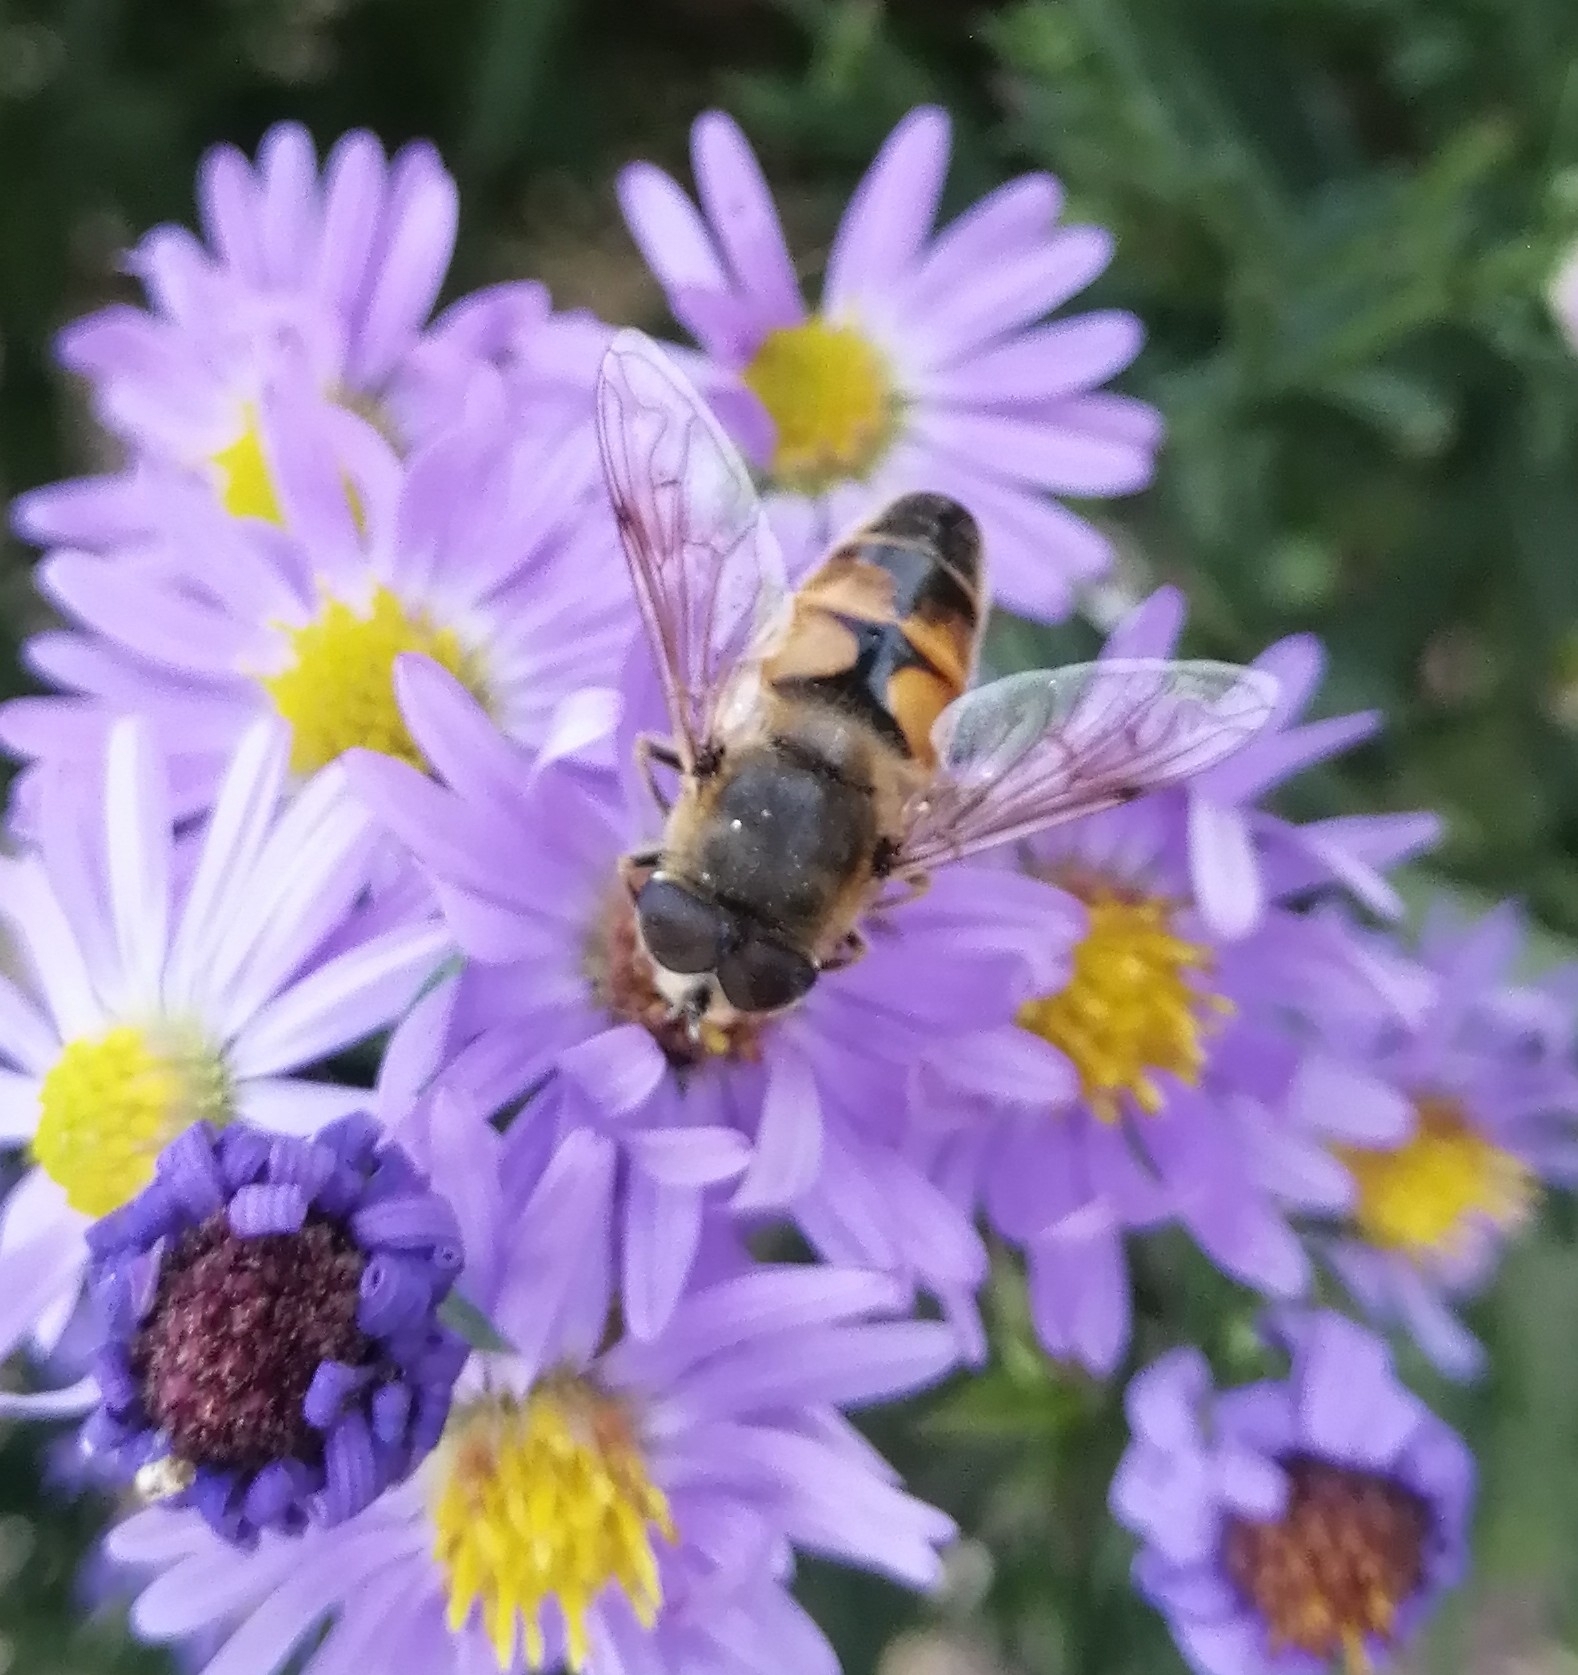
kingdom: Animalia
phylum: Arthropoda
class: Insecta
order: Diptera
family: Syrphidae
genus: Eristalis
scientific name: Eristalis tenax
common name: Drone fly
